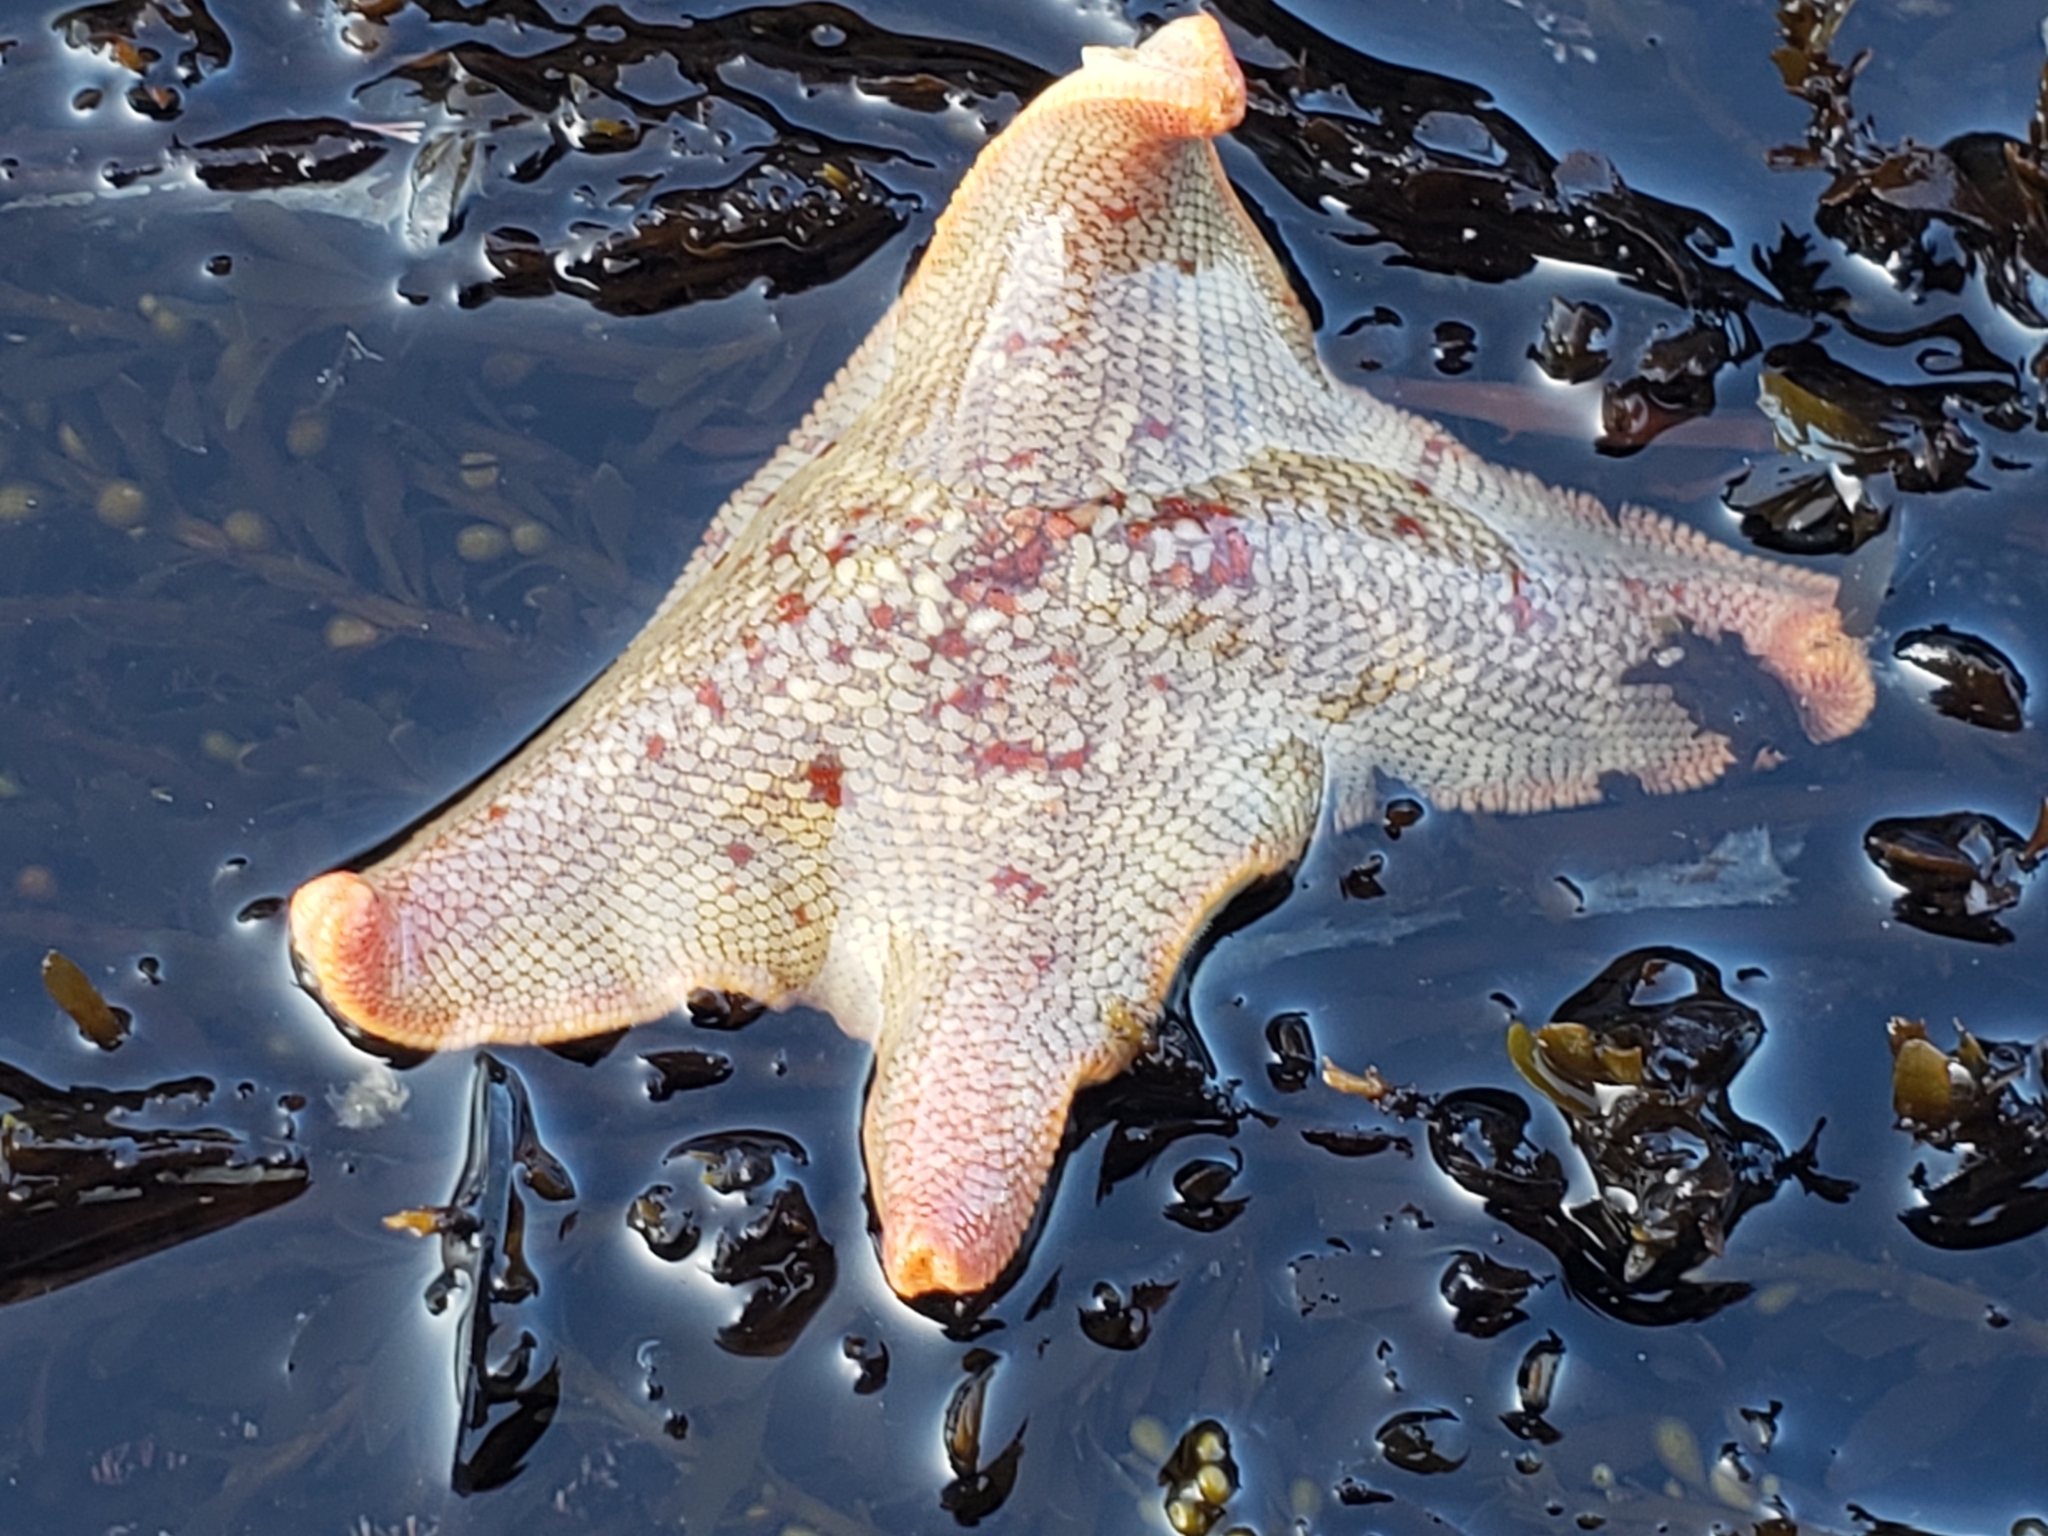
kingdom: Animalia
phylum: Echinodermata
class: Asteroidea
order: Valvatida
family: Asterinidae
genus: Patiria
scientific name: Patiria miniata
